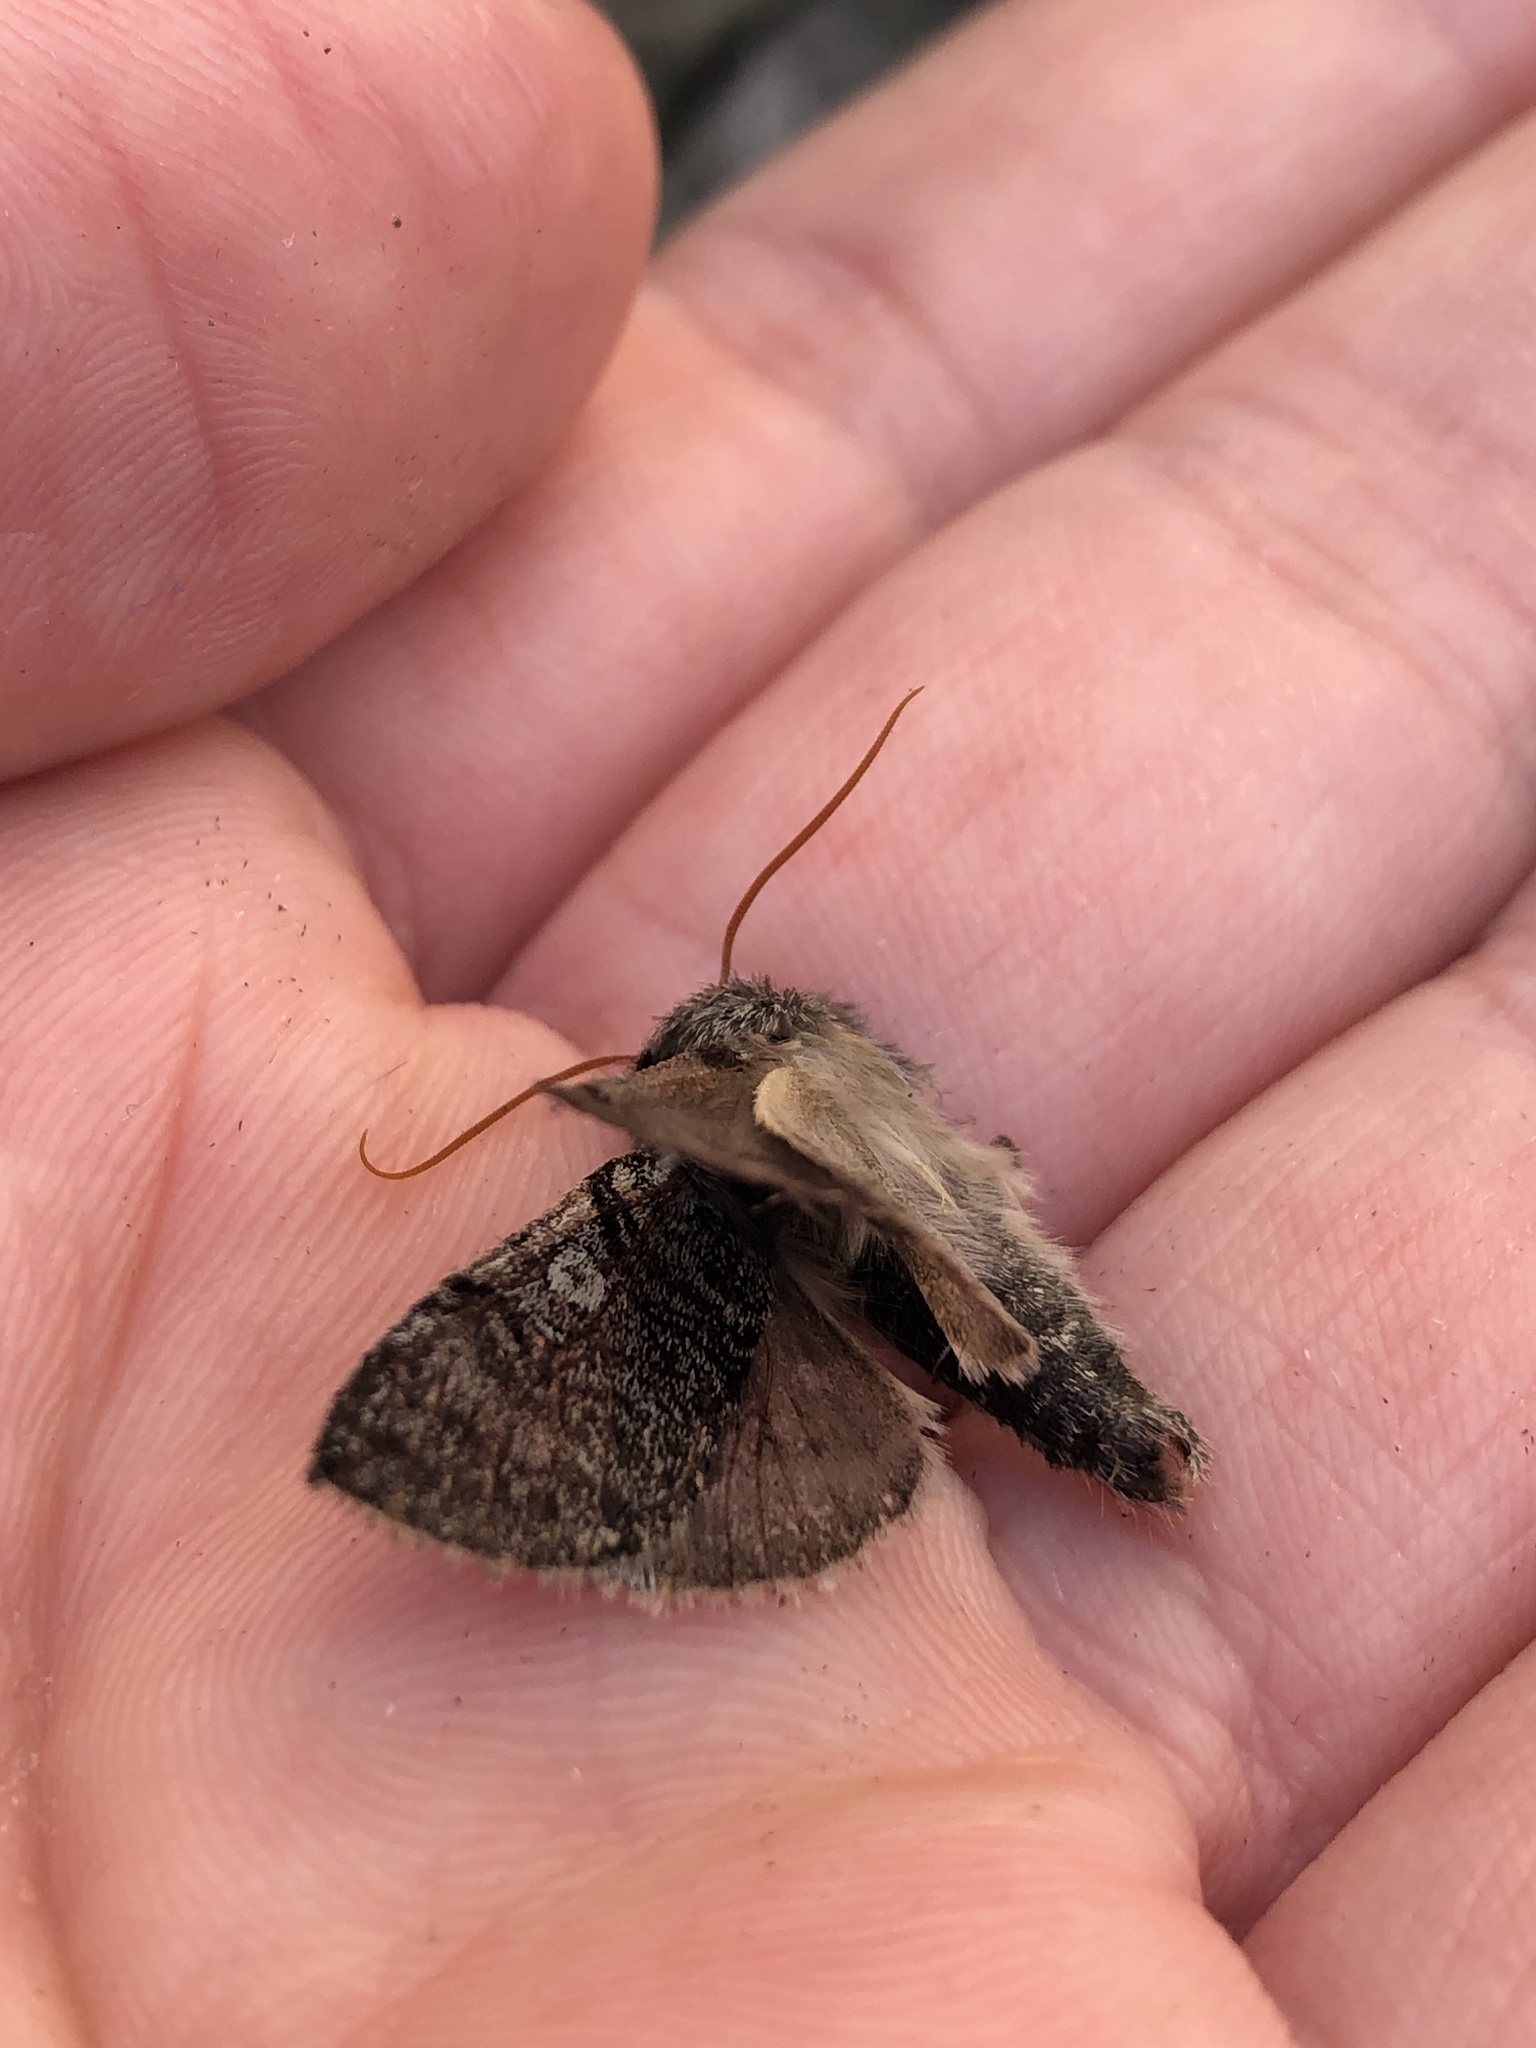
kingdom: Animalia
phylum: Arthropoda
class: Insecta
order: Lepidoptera
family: Drepanidae
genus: Achlya
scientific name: Achlya flavicornis
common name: Yellow horned
